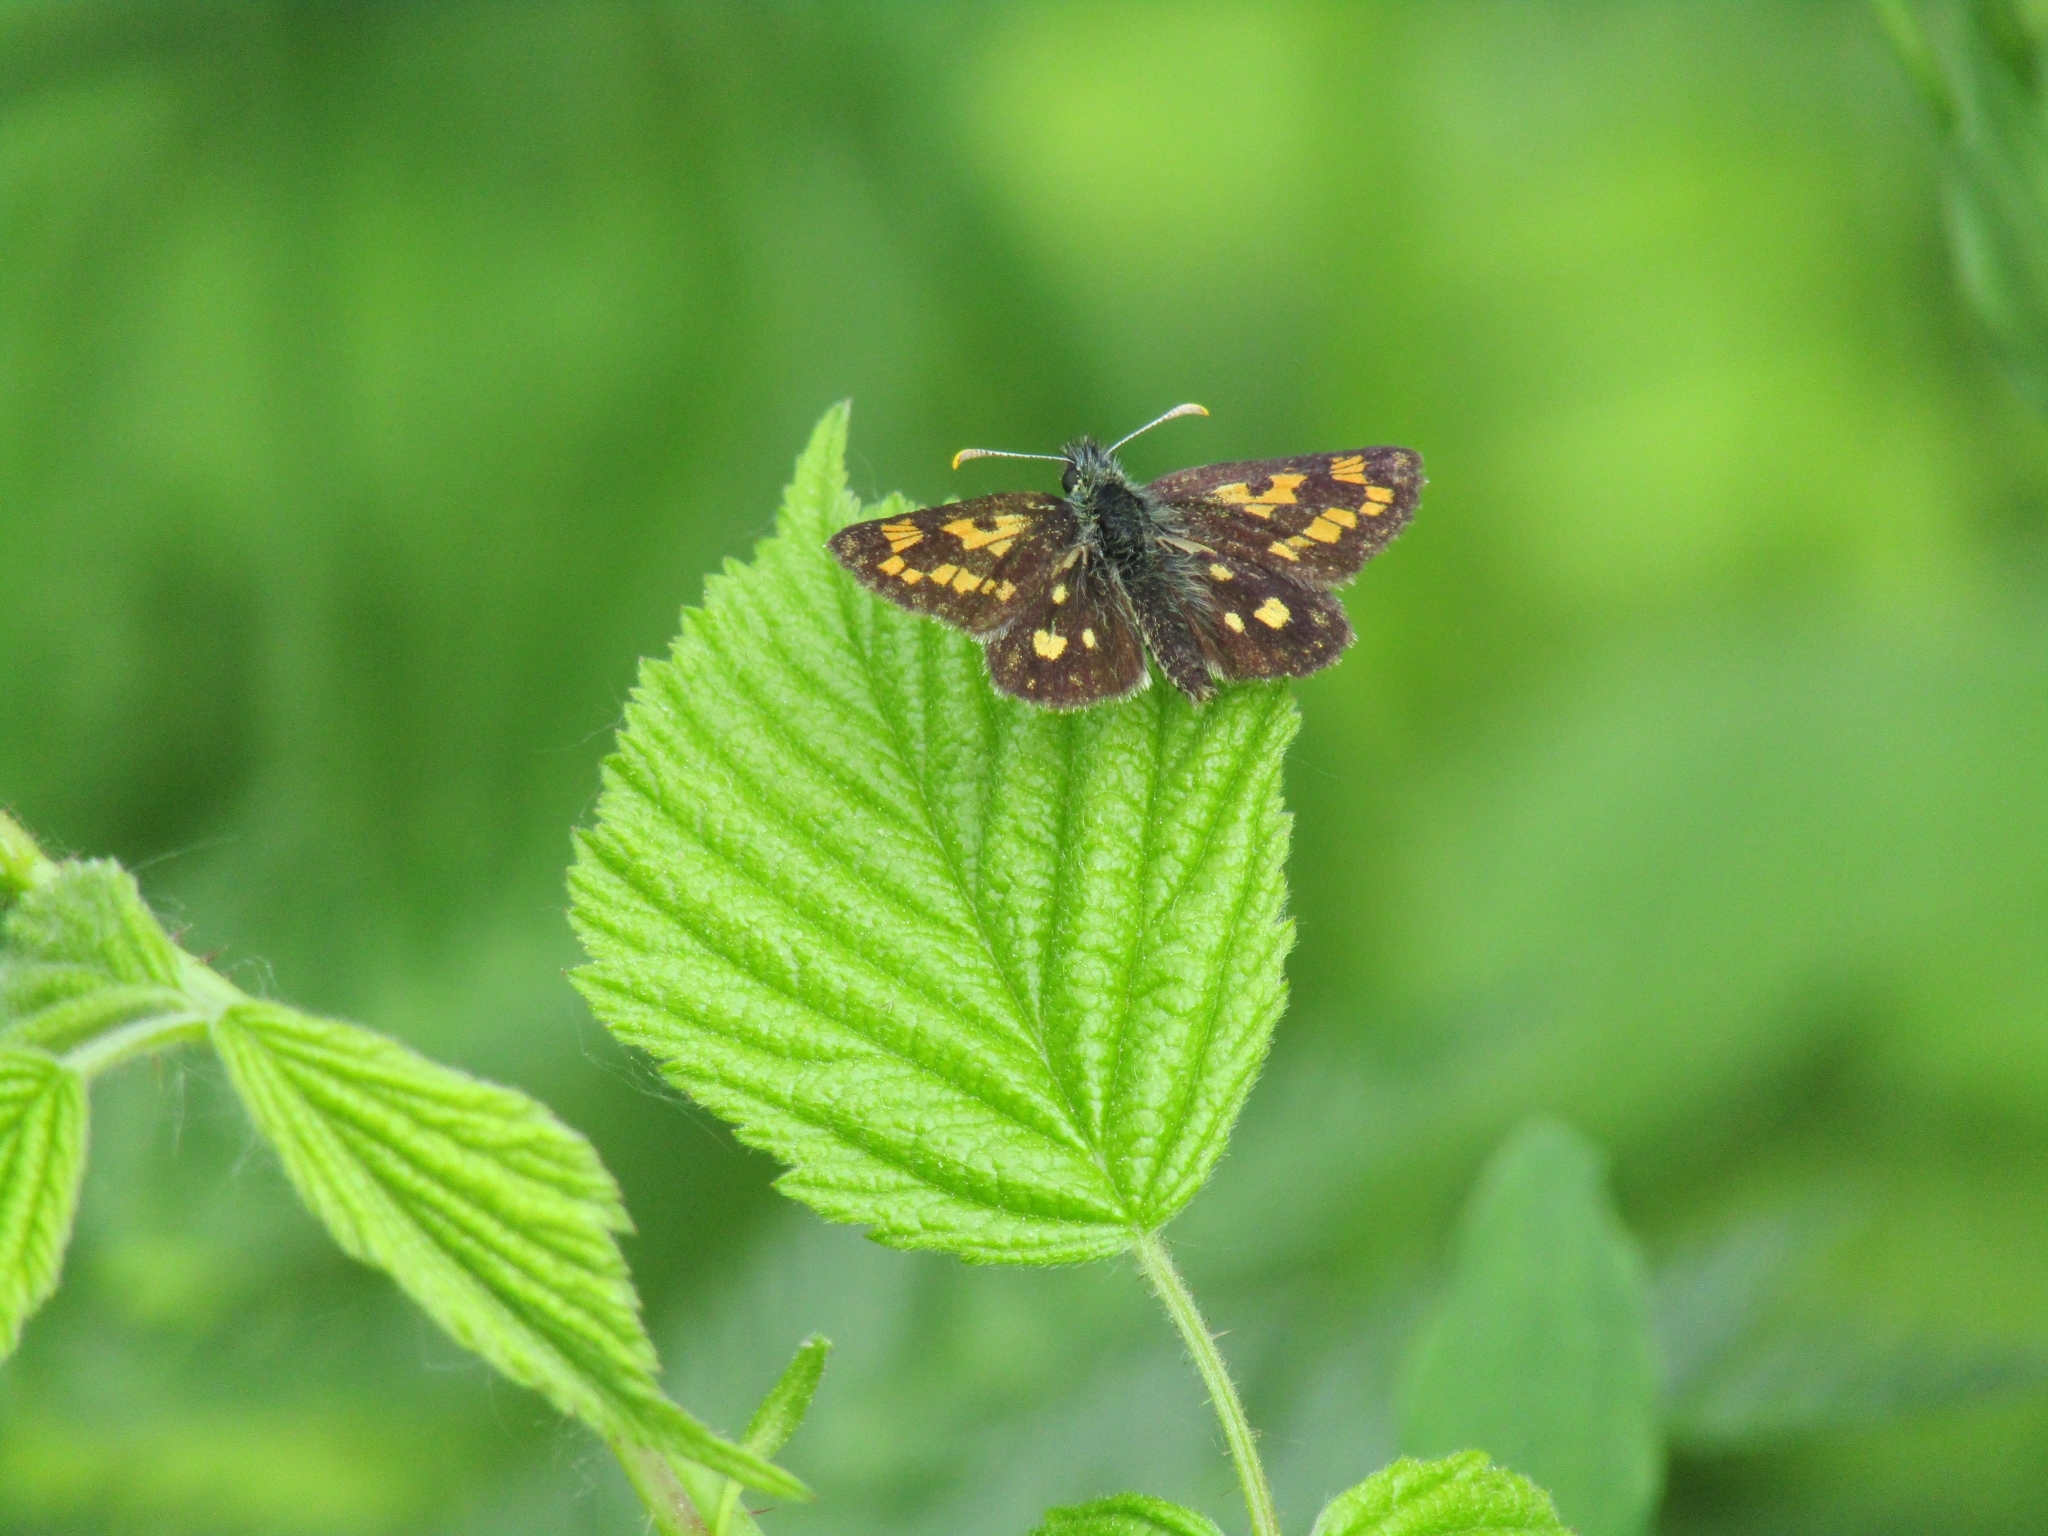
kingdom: Animalia
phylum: Arthropoda
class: Insecta
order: Lepidoptera
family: Hesperiidae
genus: Carterocephalus
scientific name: Carterocephalus palaemon
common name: Chequered skipper
